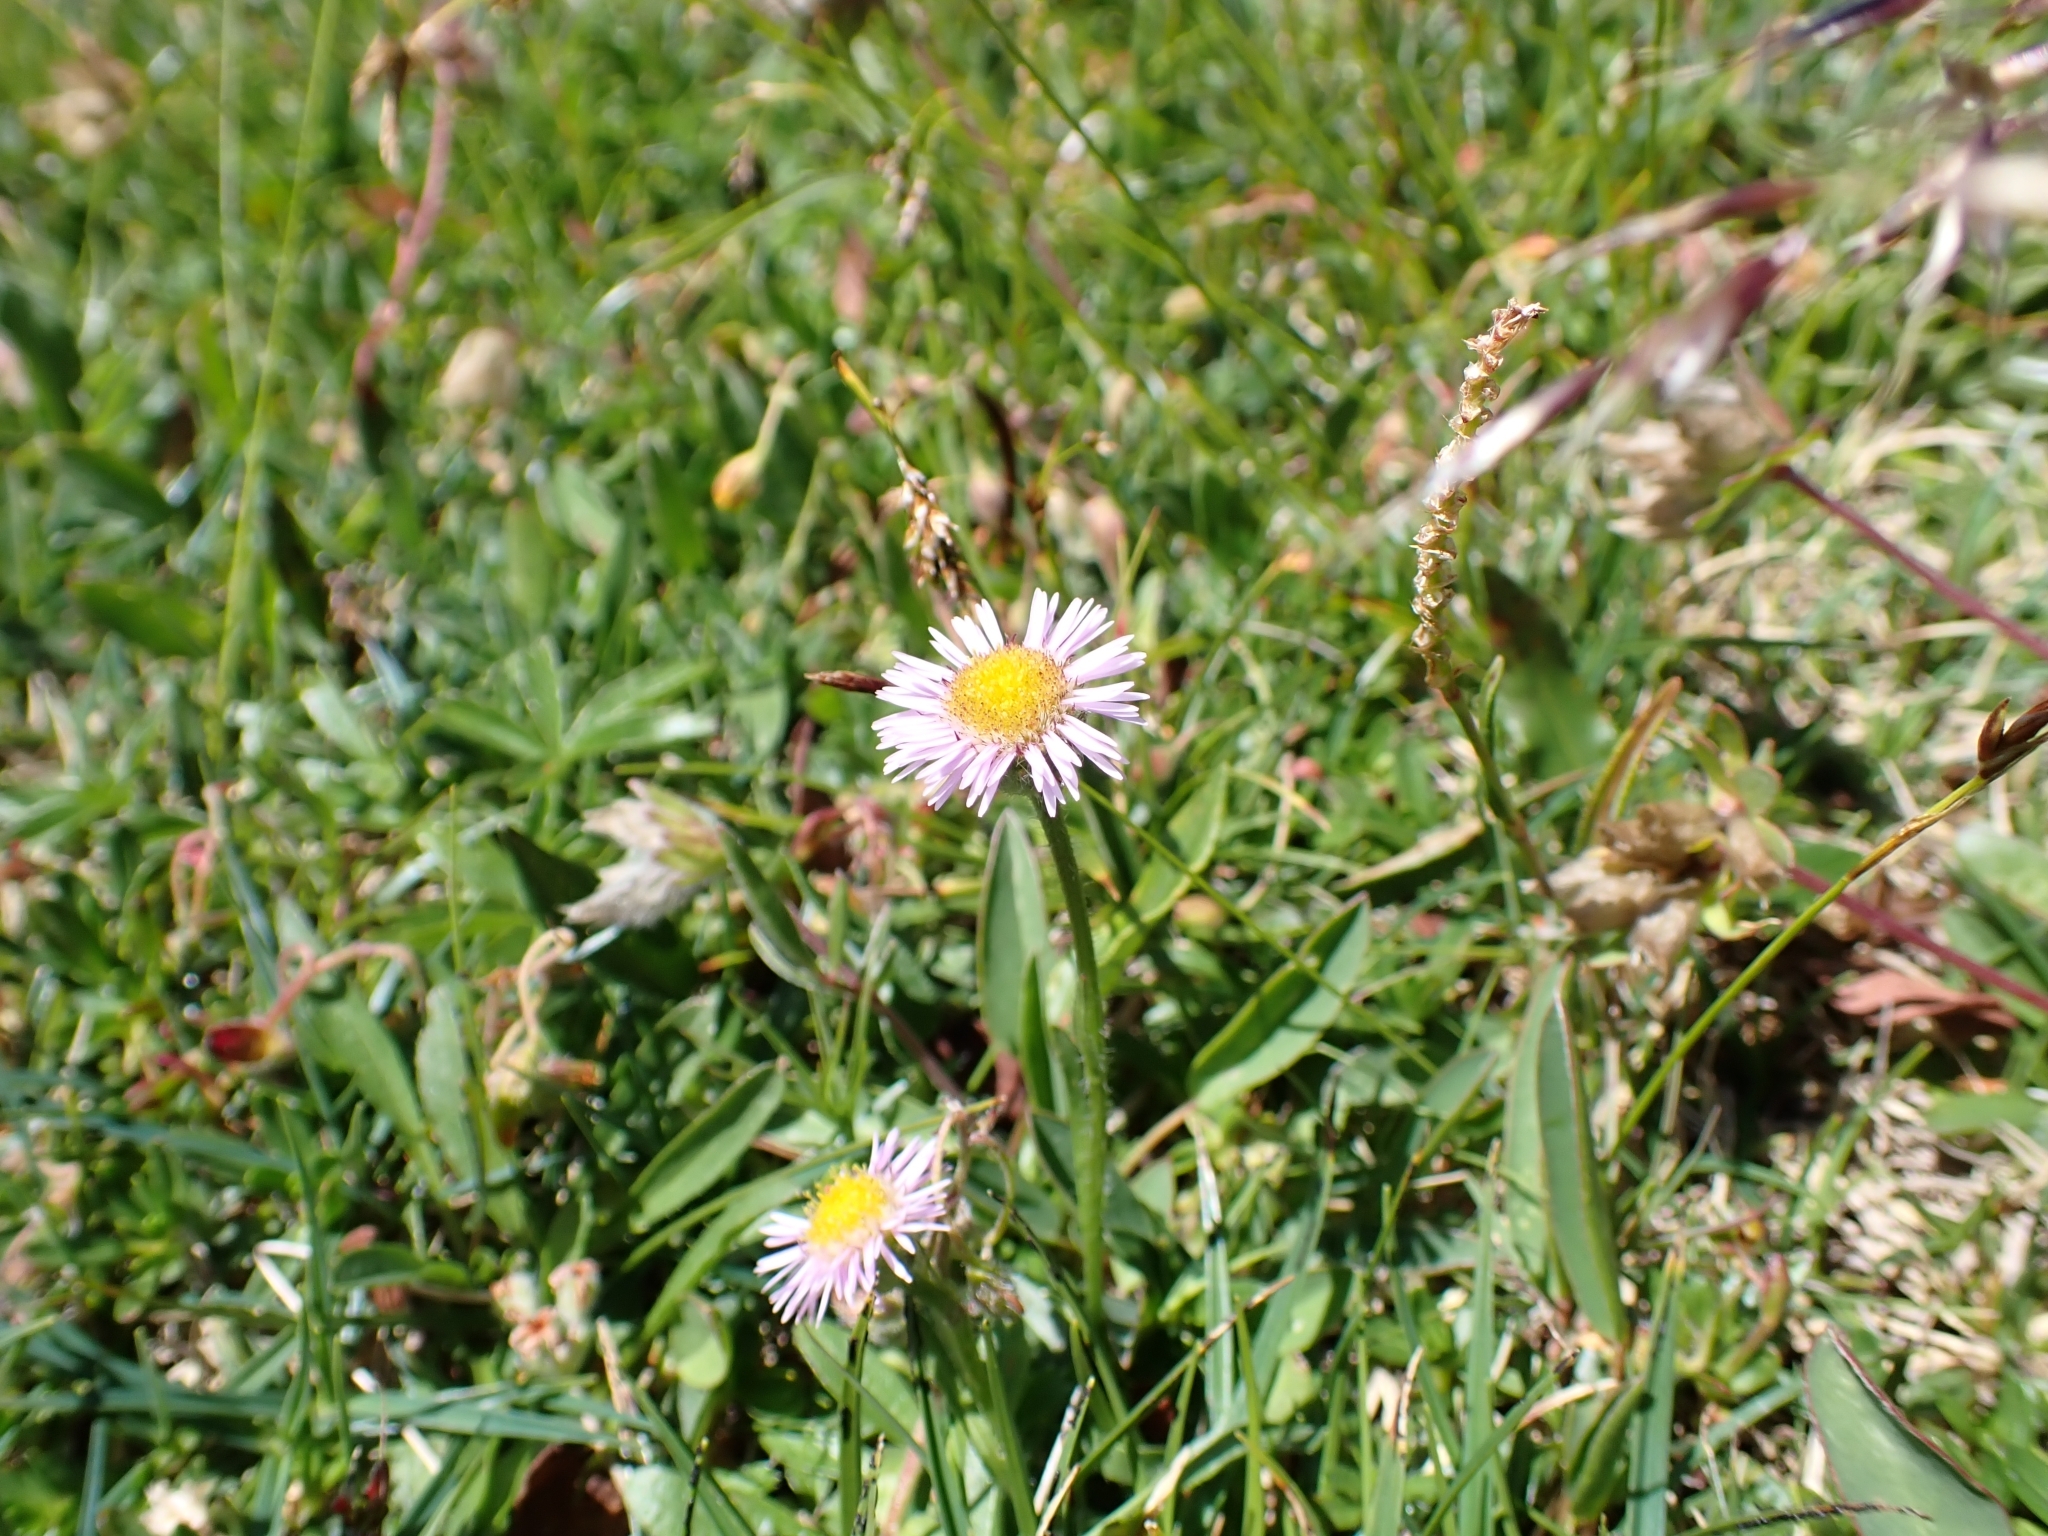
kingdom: Plantae
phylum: Tracheophyta
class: Magnoliopsida
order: Asterales
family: Asteraceae
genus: Erigeron
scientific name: Erigeron alpinus
